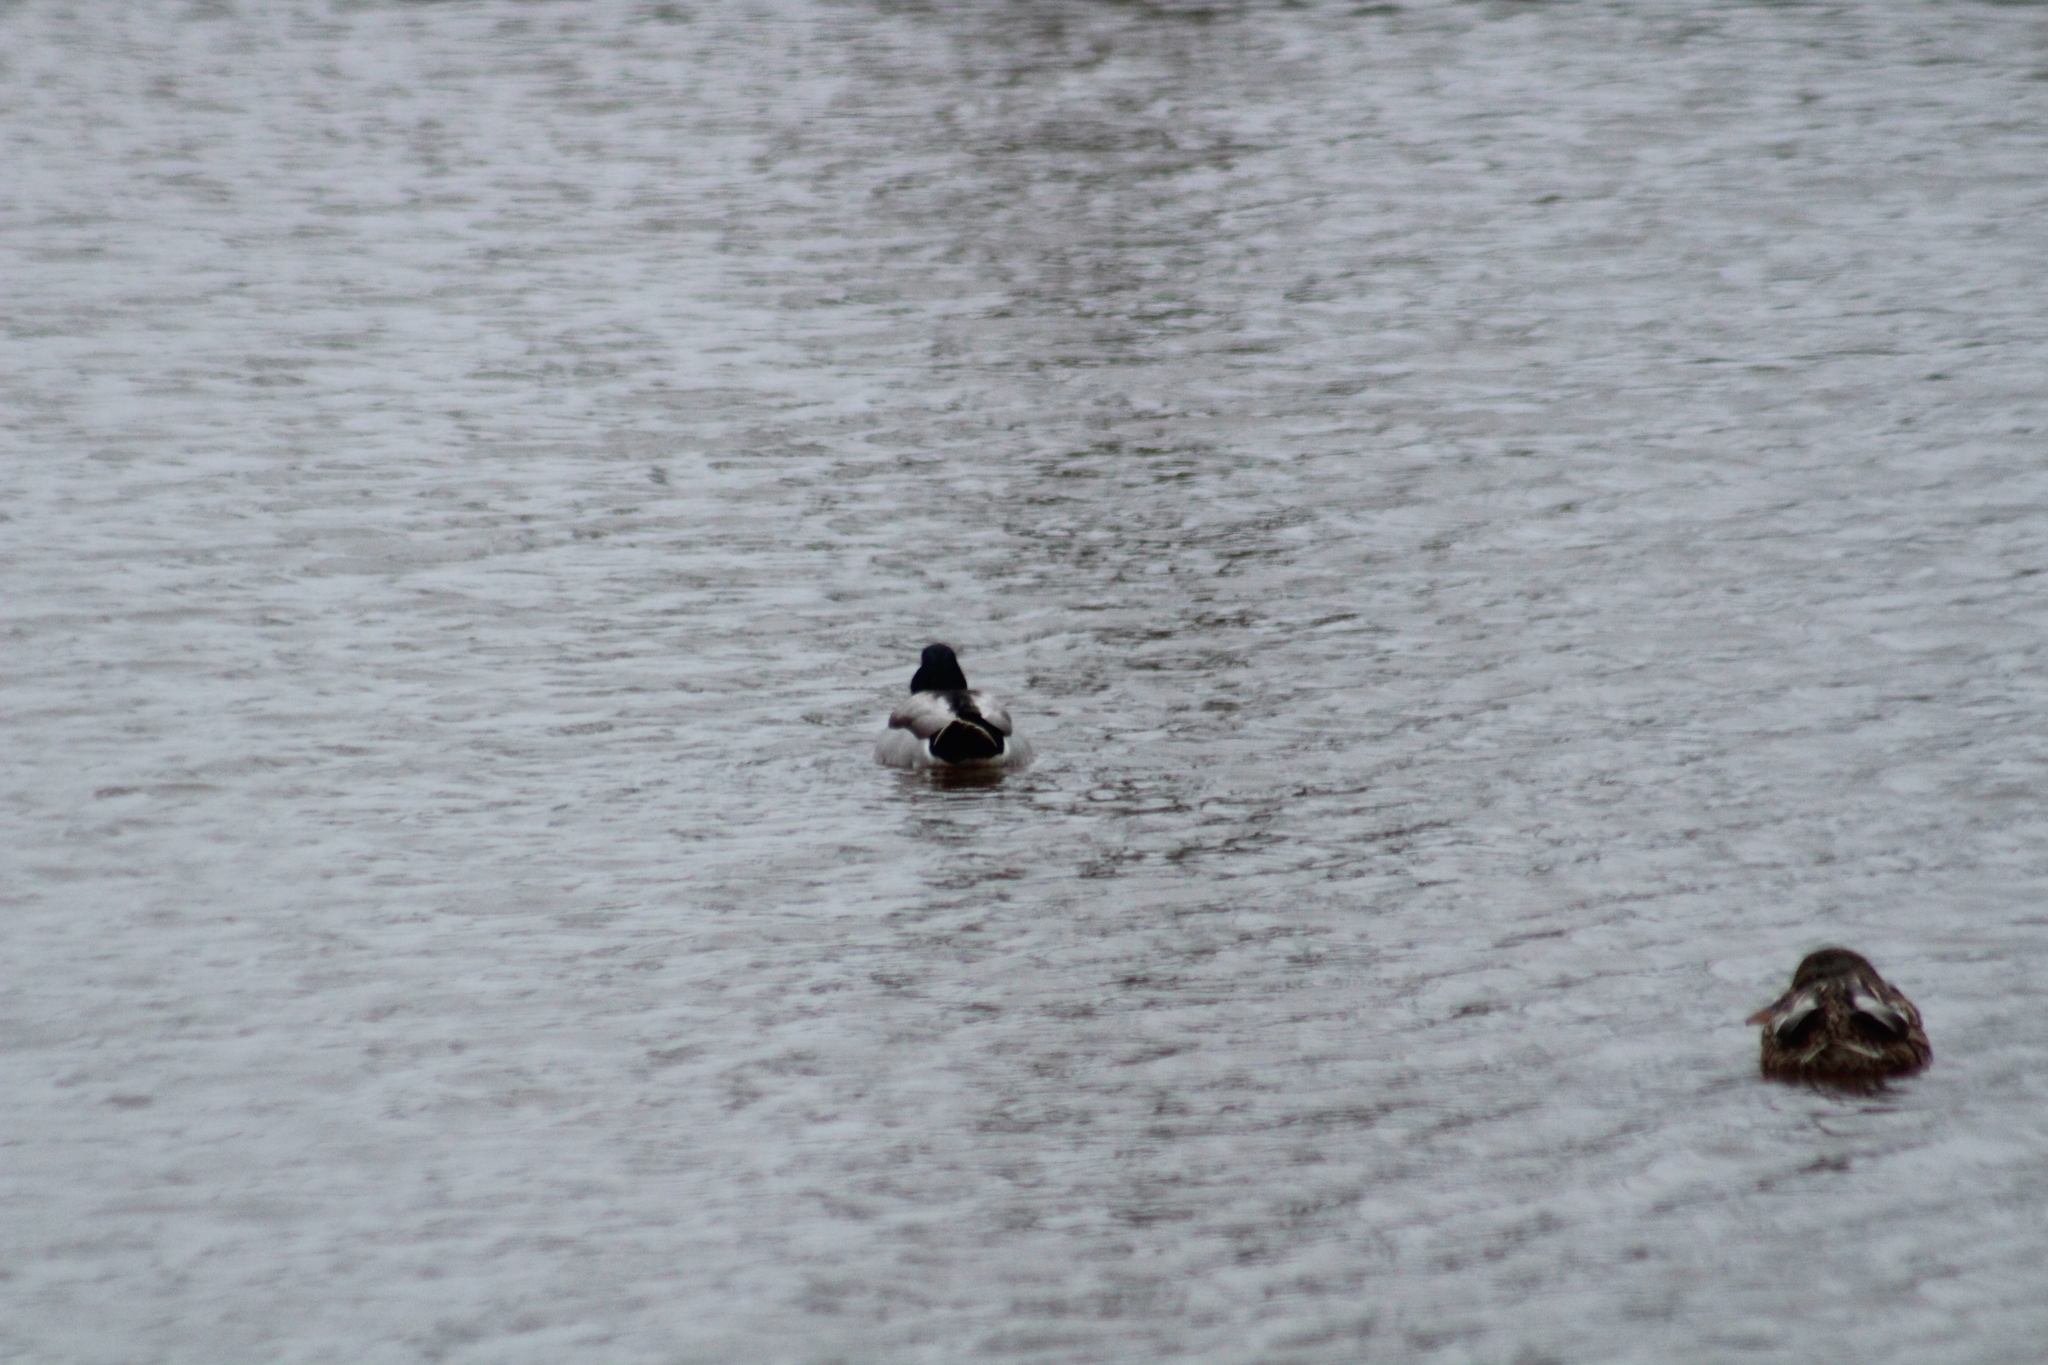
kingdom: Animalia
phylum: Chordata
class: Aves
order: Anseriformes
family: Anatidae
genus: Anas
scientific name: Anas platyrhynchos
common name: Mallard
